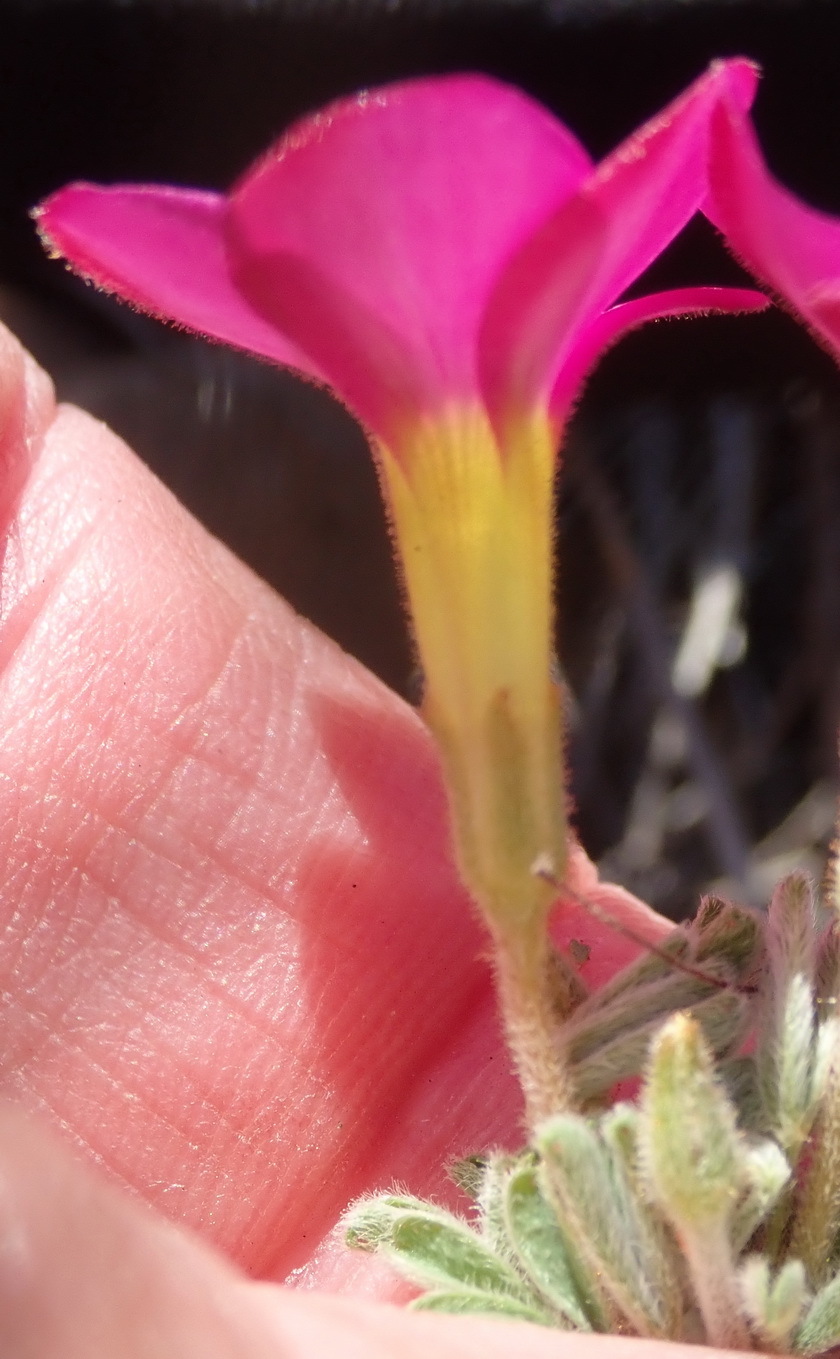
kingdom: Plantae
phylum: Tracheophyta
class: Magnoliopsida
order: Oxalidales
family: Oxalidaceae
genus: Oxalis
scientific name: Oxalis droseroides
